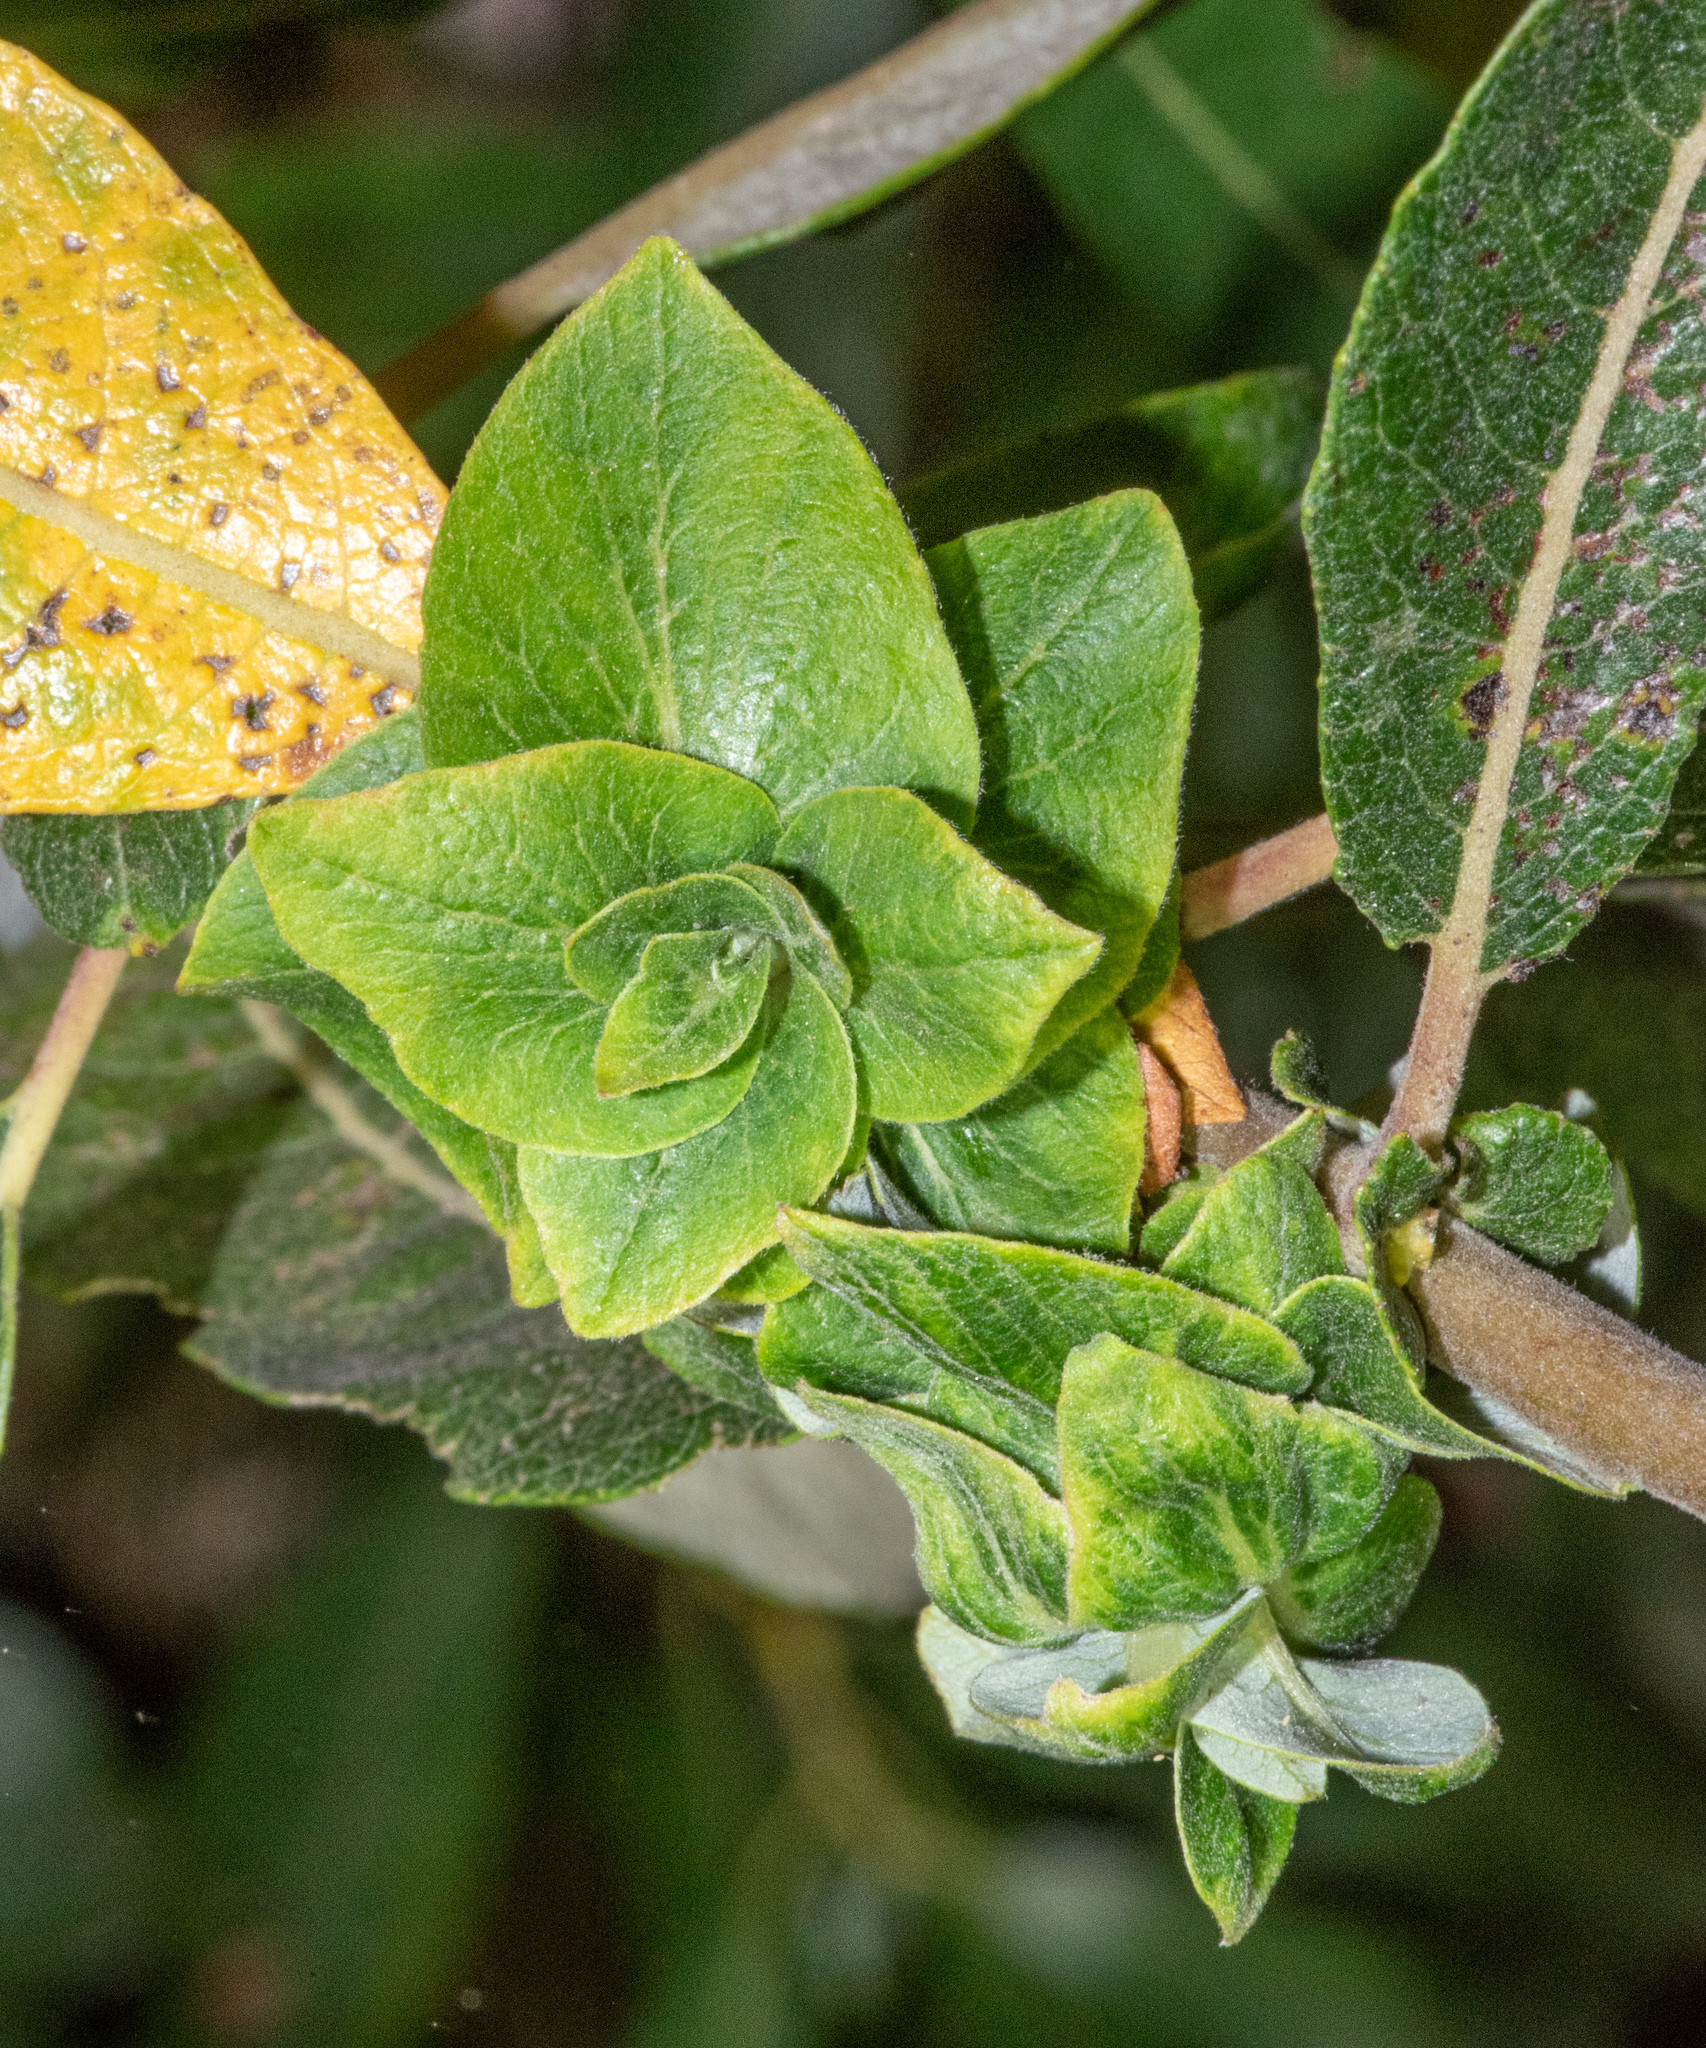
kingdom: Animalia
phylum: Arthropoda
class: Insecta
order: Diptera
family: Cecidomyiidae
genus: Rabdophaga
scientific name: Rabdophaga salicisbrassicoides
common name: Willow cabbagegall midge
